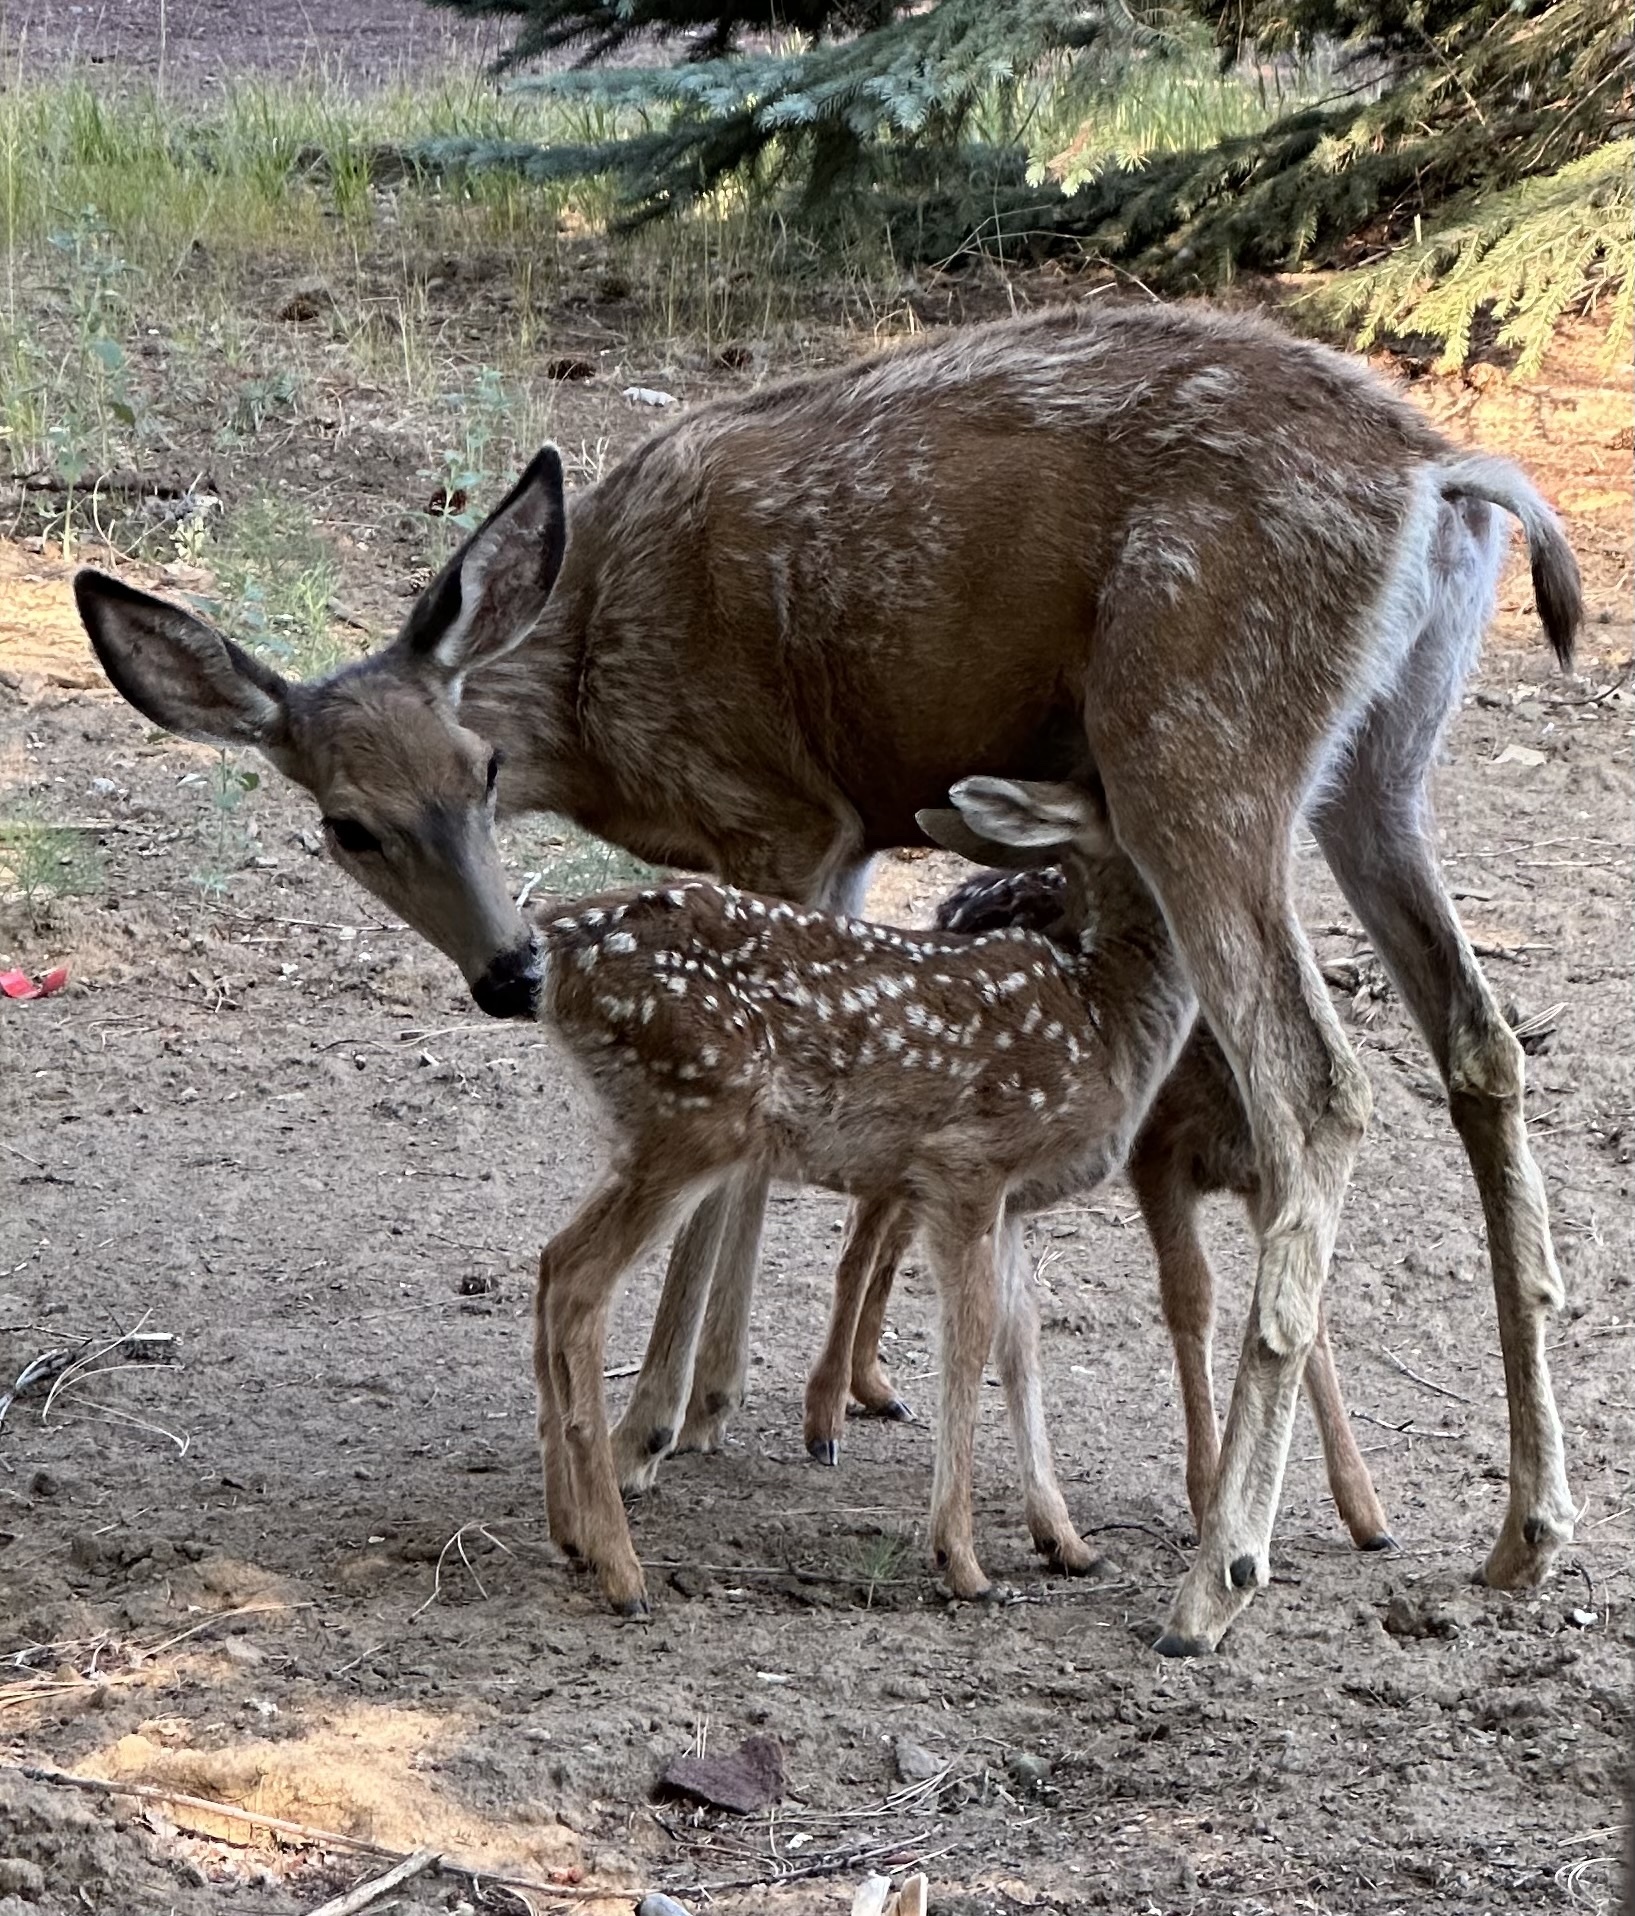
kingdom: Animalia
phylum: Chordata
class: Mammalia
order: Artiodactyla
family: Cervidae
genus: Odocoileus
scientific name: Odocoileus hemionus
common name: Mule deer
